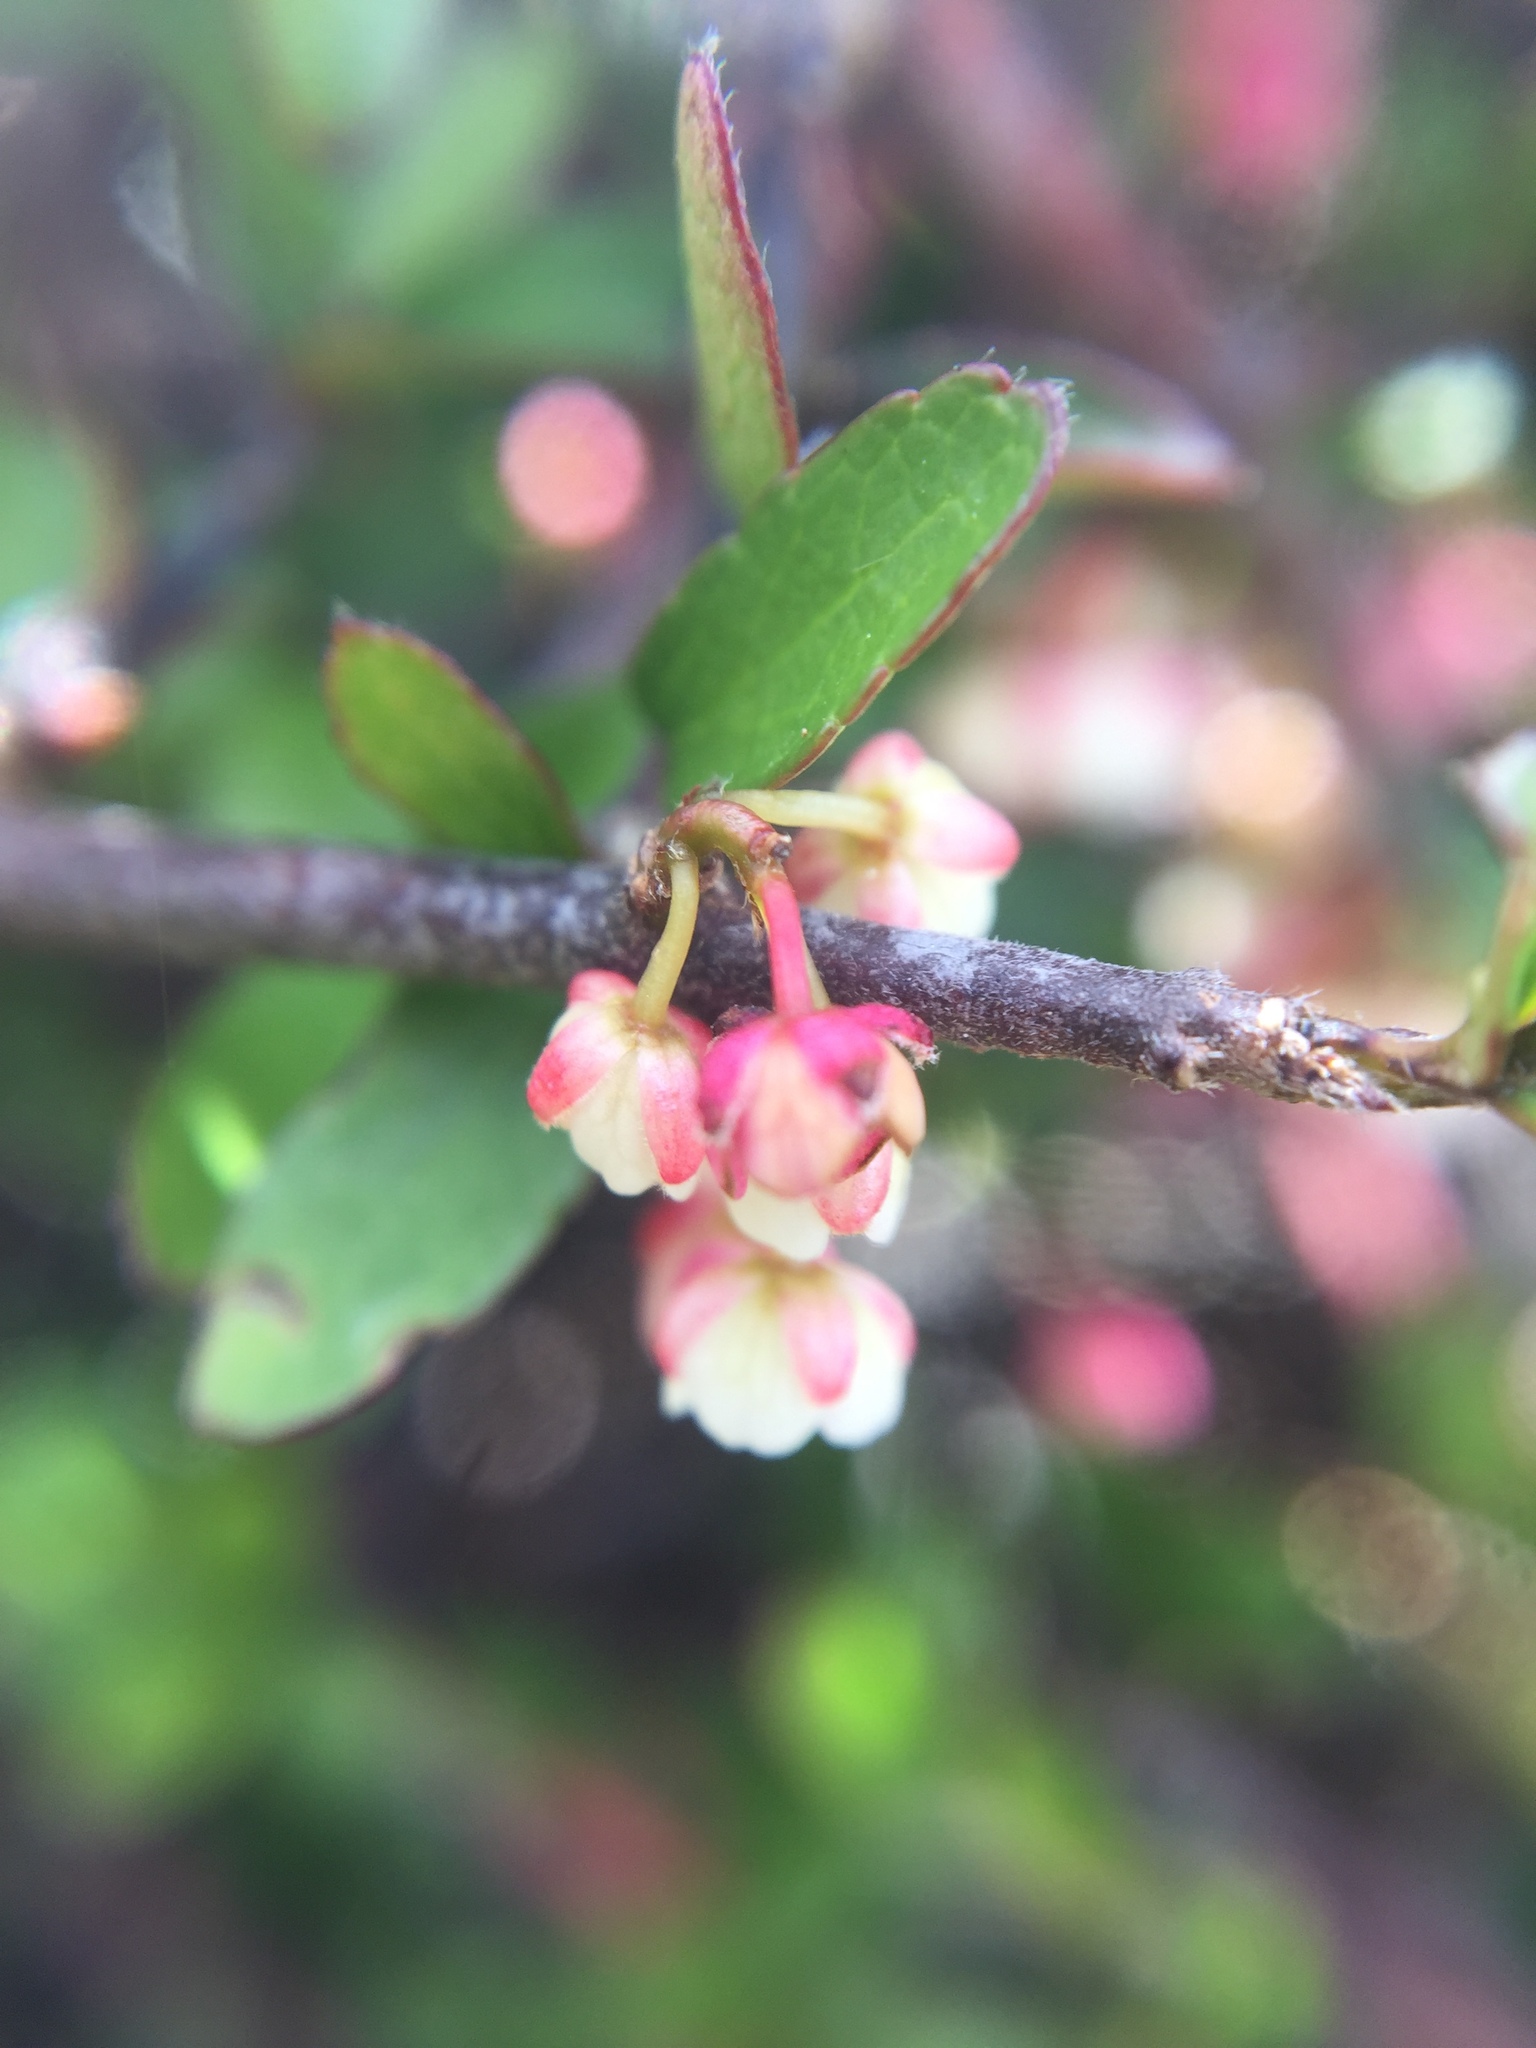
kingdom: Plantae
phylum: Tracheophyta
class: Magnoliopsida
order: Oxalidales
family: Elaeocarpaceae
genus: Aristotelia
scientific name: Aristotelia fruticosa
